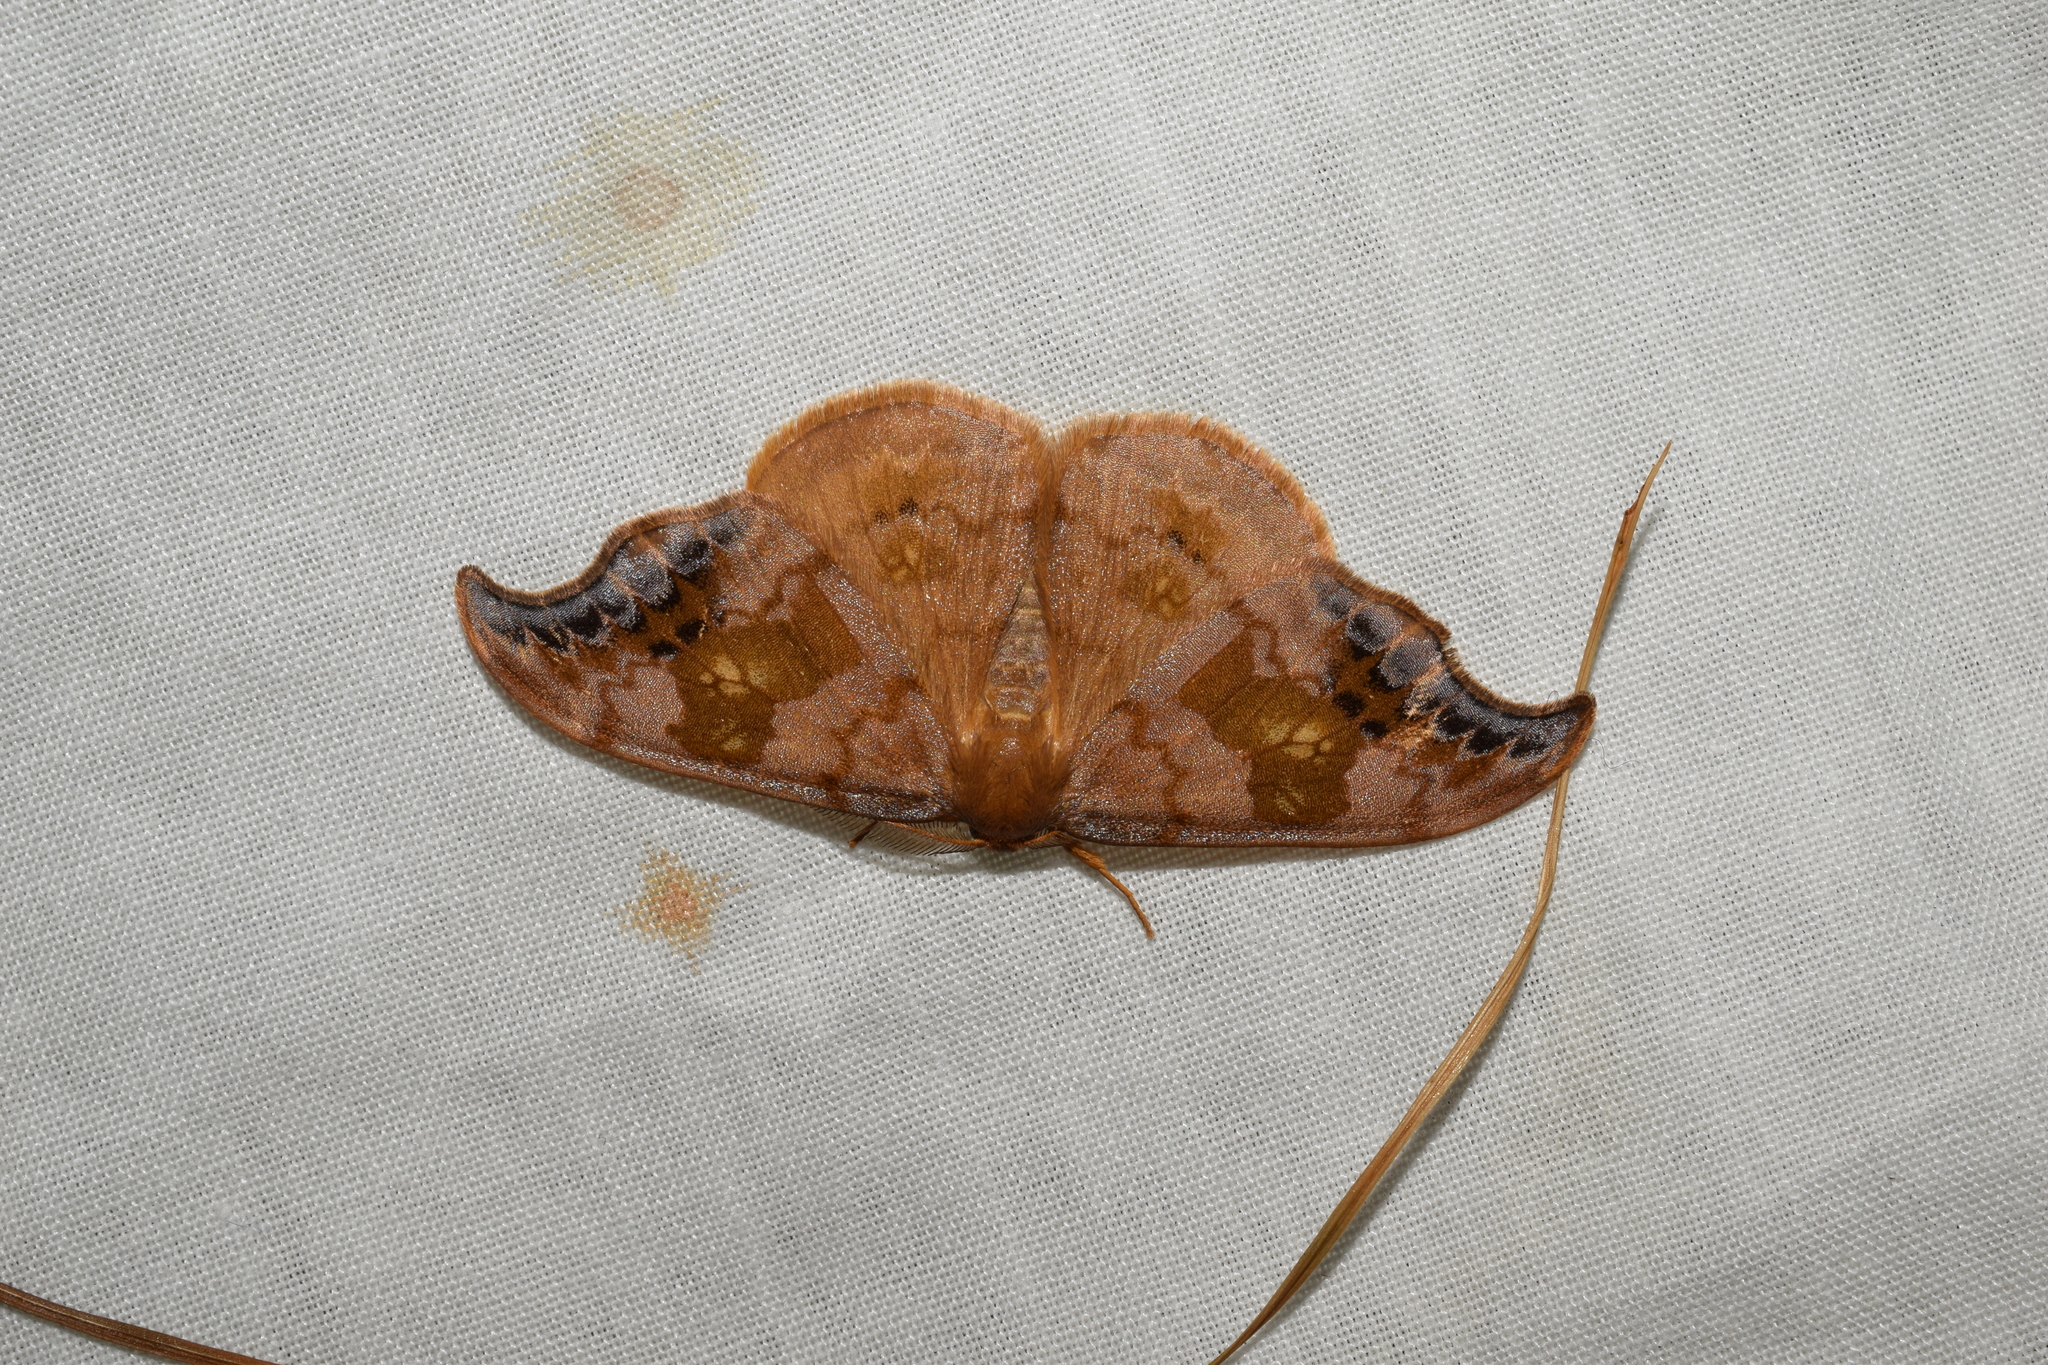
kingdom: Animalia
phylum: Arthropoda
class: Insecta
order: Lepidoptera
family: Drepanidae
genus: Sabra
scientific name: Sabra harpagula
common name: Scarce hook-tip
